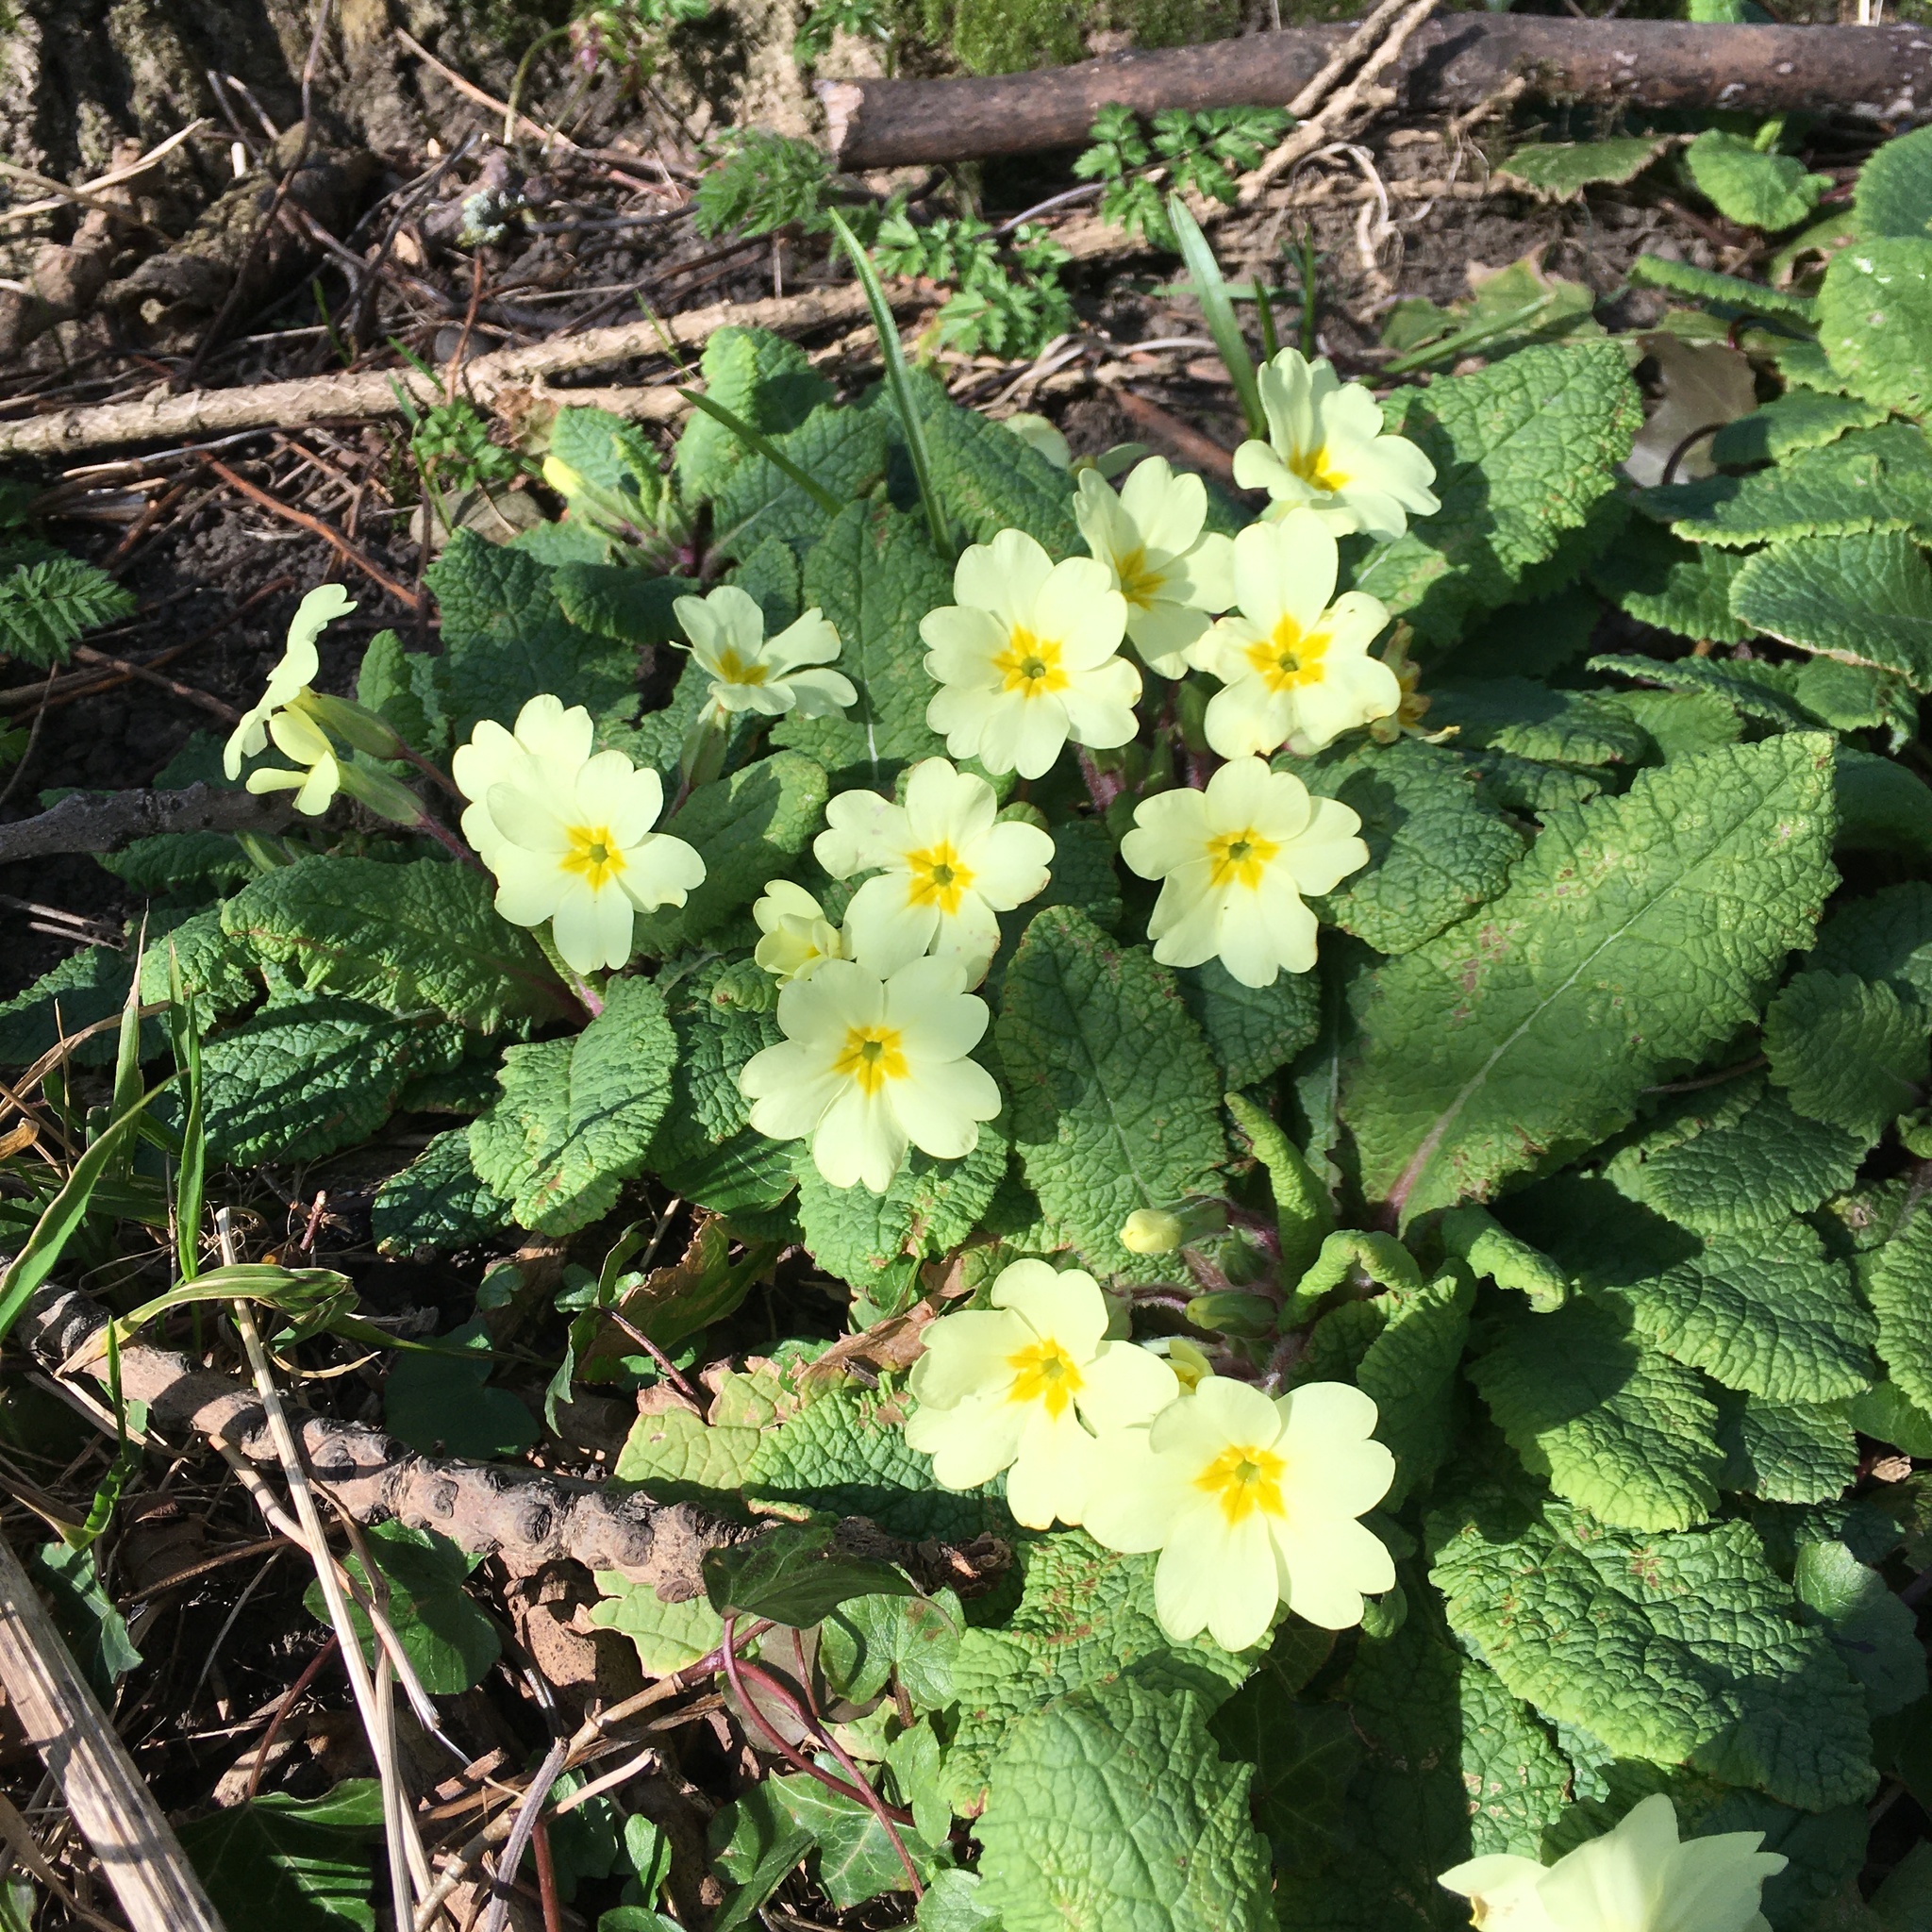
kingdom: Plantae
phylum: Tracheophyta
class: Magnoliopsida
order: Ericales
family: Primulaceae
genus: Primula
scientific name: Primula vulgaris
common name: Primrose
